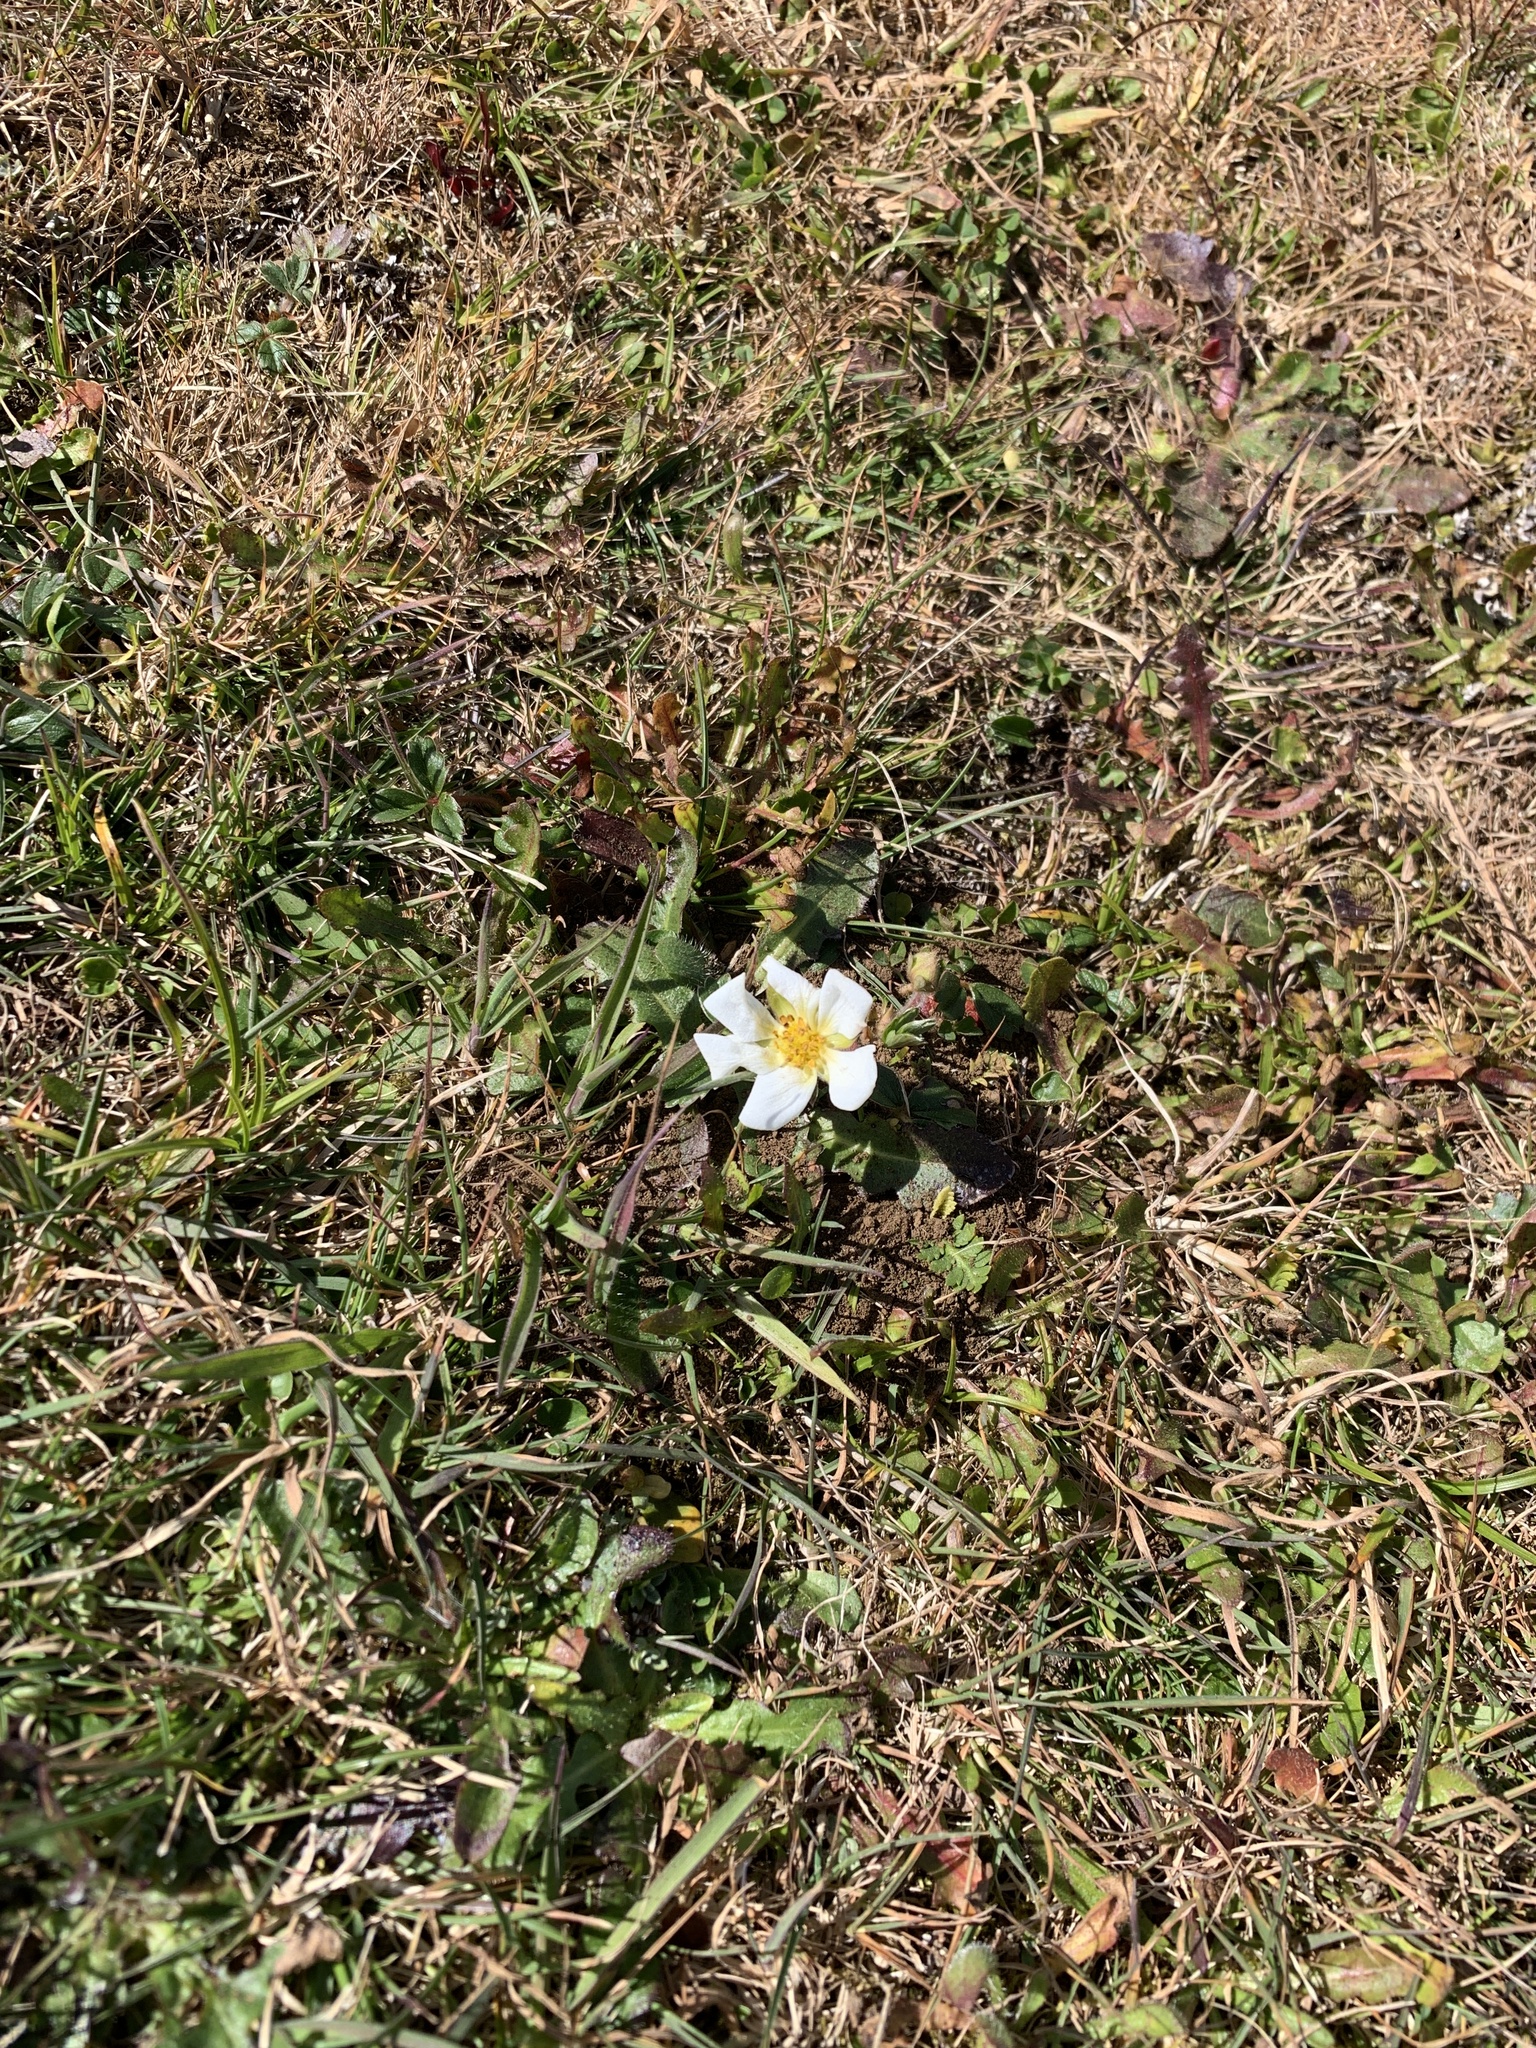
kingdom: Plantae
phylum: Tracheophyta
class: Magnoliopsida
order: Rosales
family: Rosaceae
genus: Fragaria
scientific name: Fragaria chiloensis
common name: Beach strawberry
